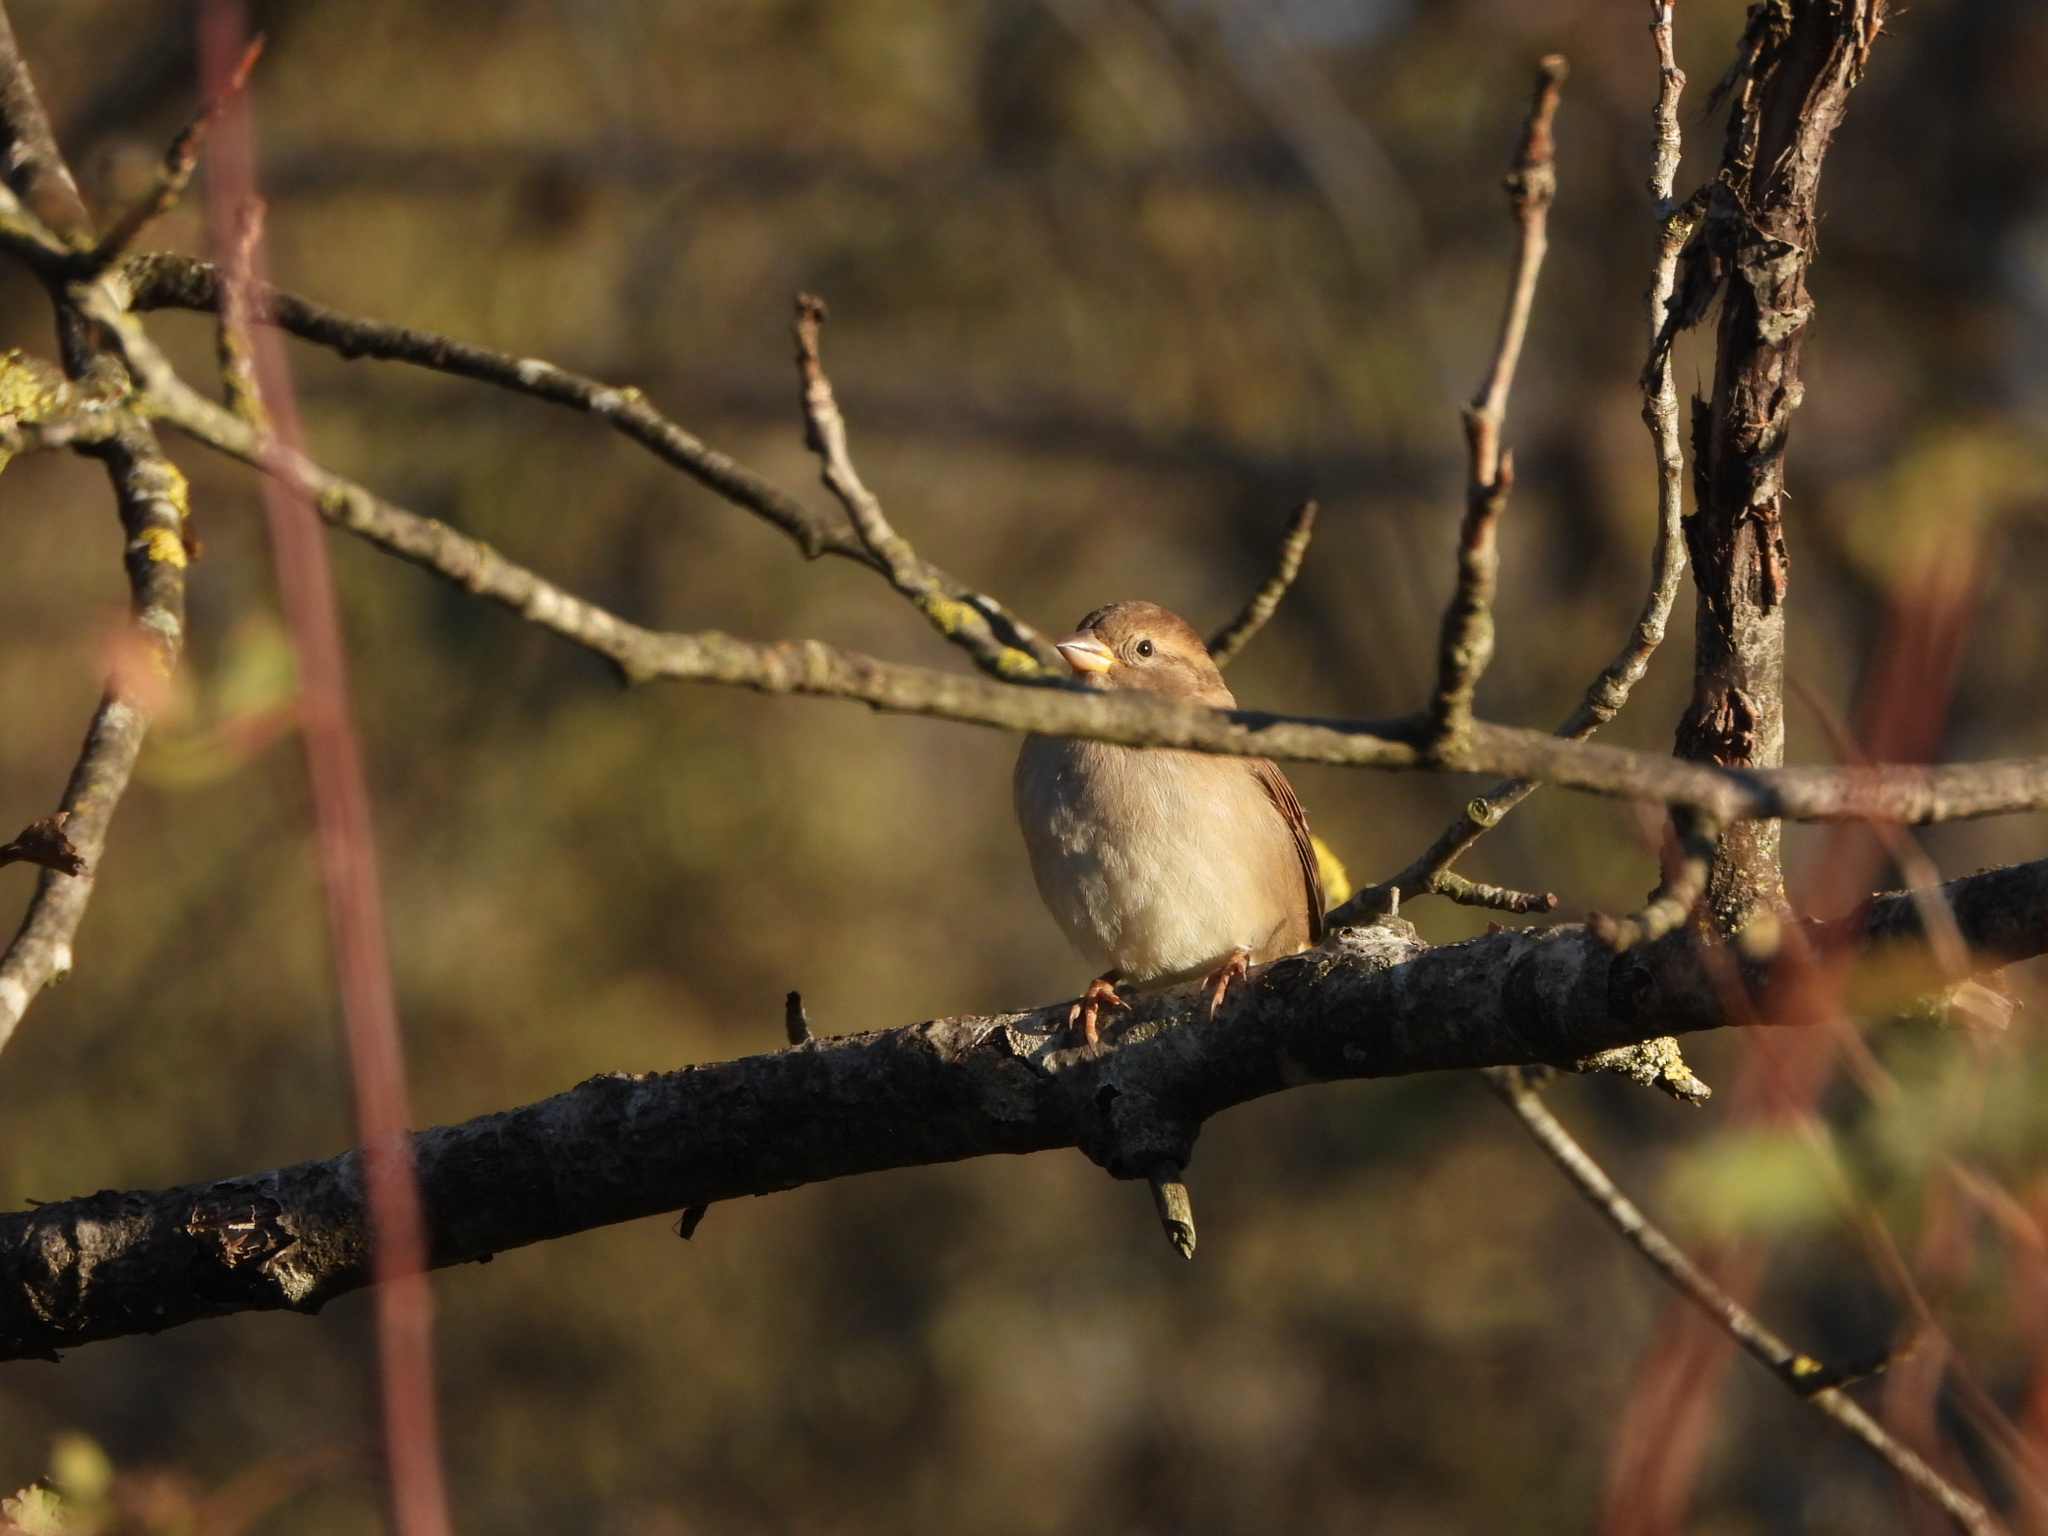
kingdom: Animalia
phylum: Chordata
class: Aves
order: Passeriformes
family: Passeridae
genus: Passer
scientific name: Passer domesticus
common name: House sparrow
